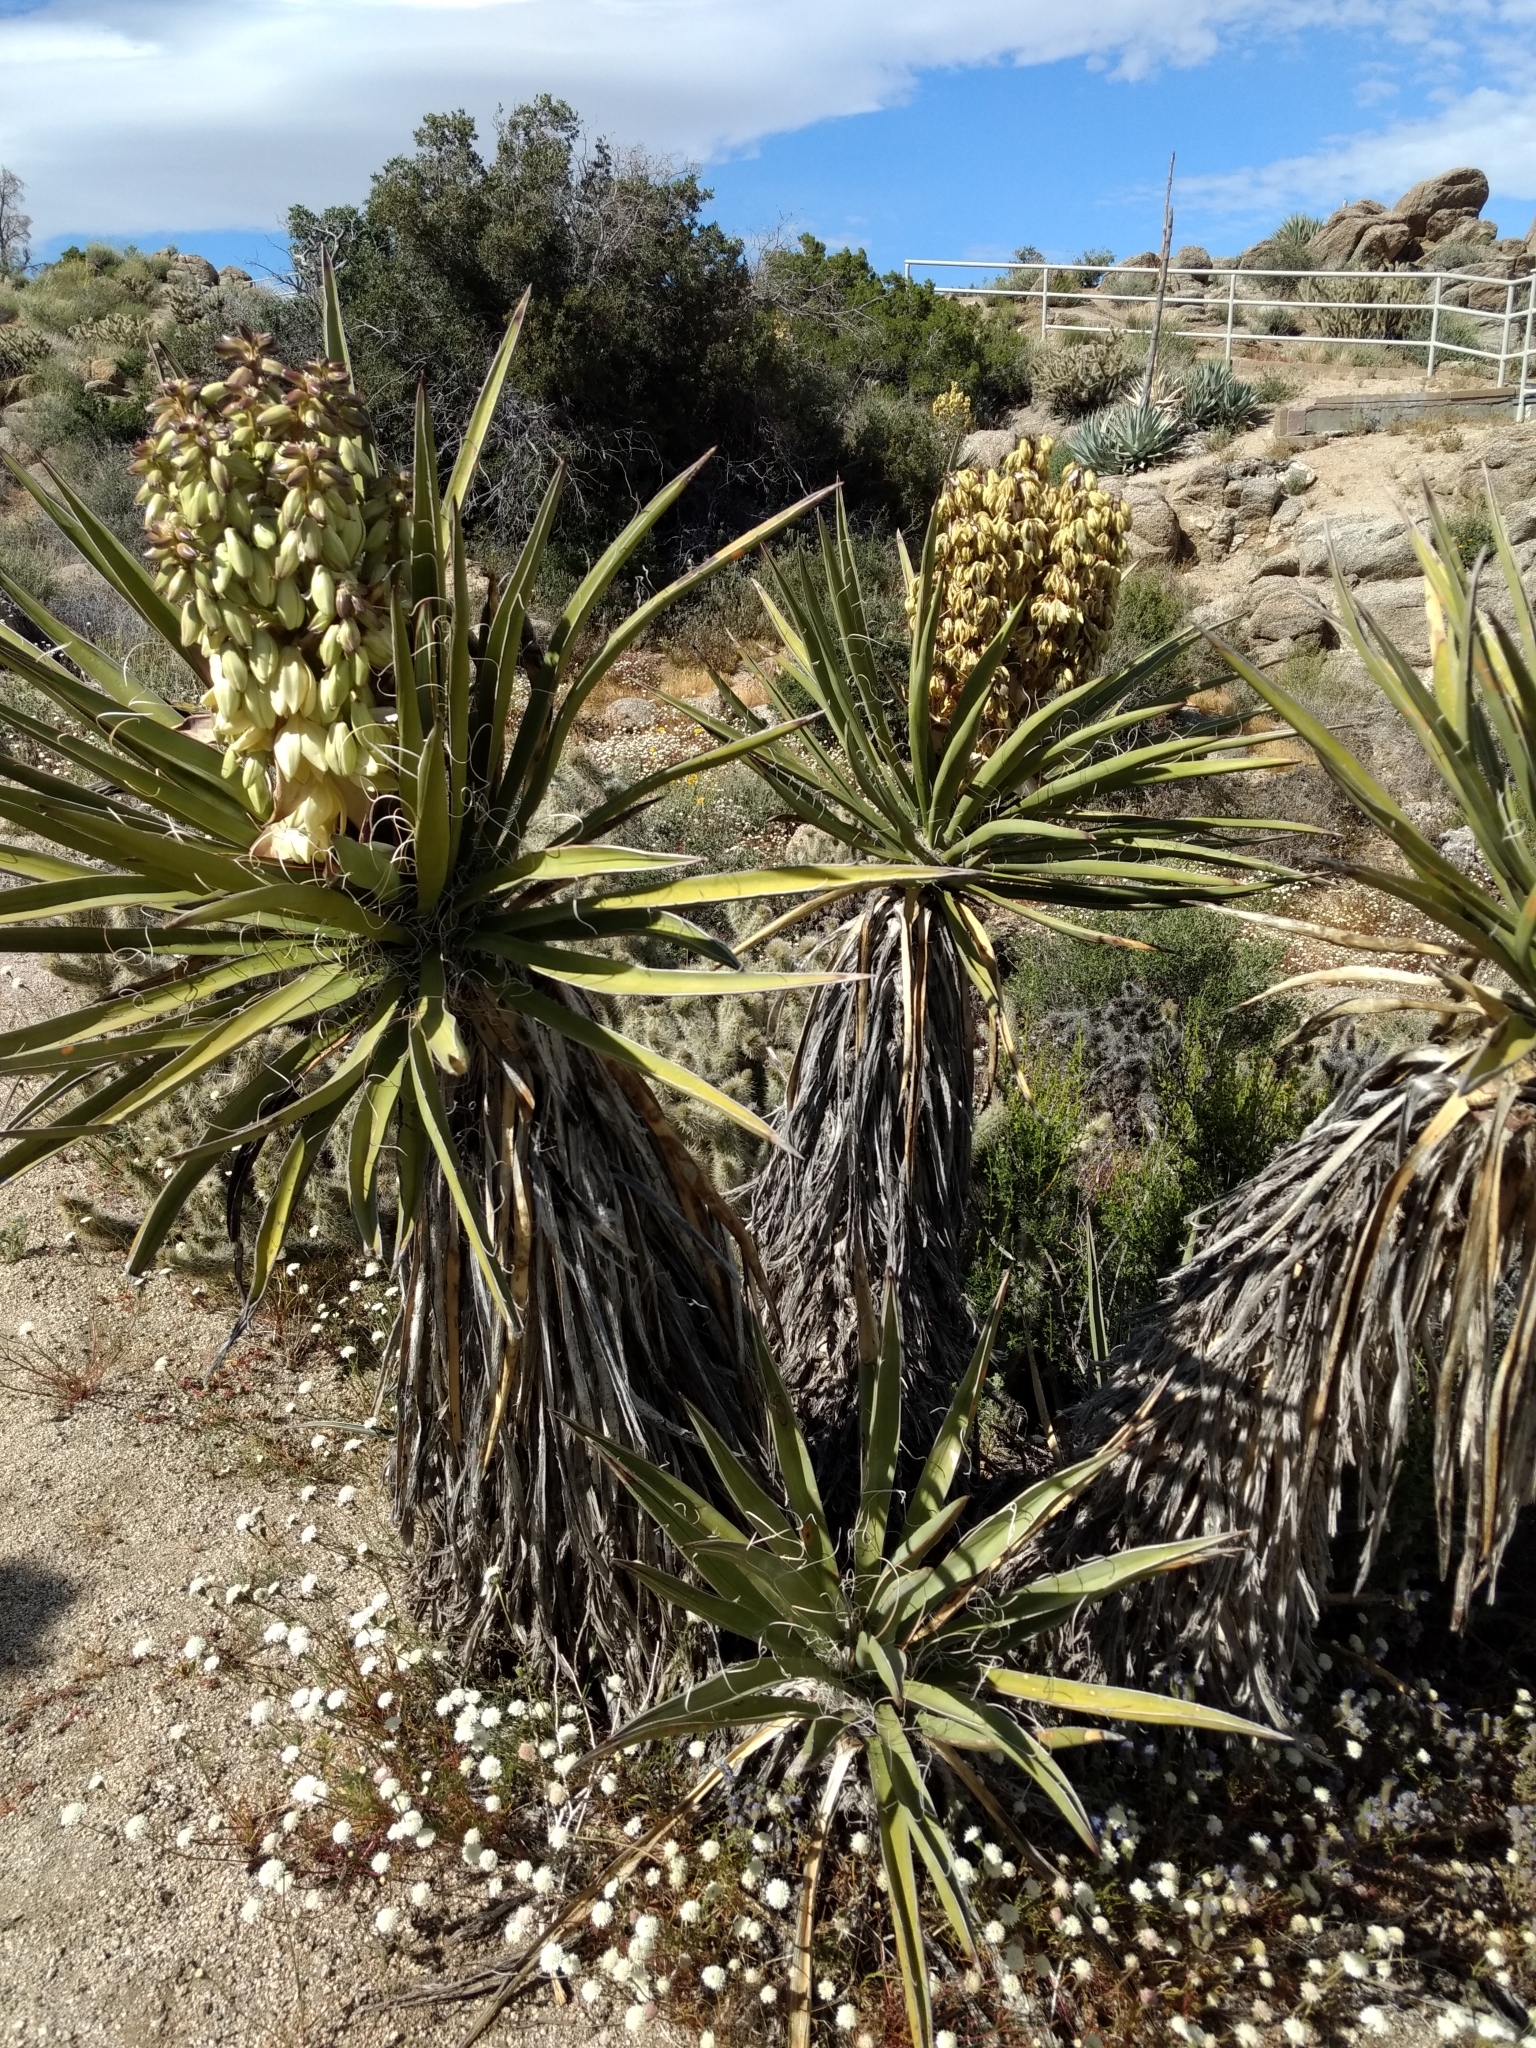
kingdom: Plantae
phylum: Tracheophyta
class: Liliopsida
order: Asparagales
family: Asparagaceae
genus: Yucca
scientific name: Yucca schidigera
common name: Mojave yucca
